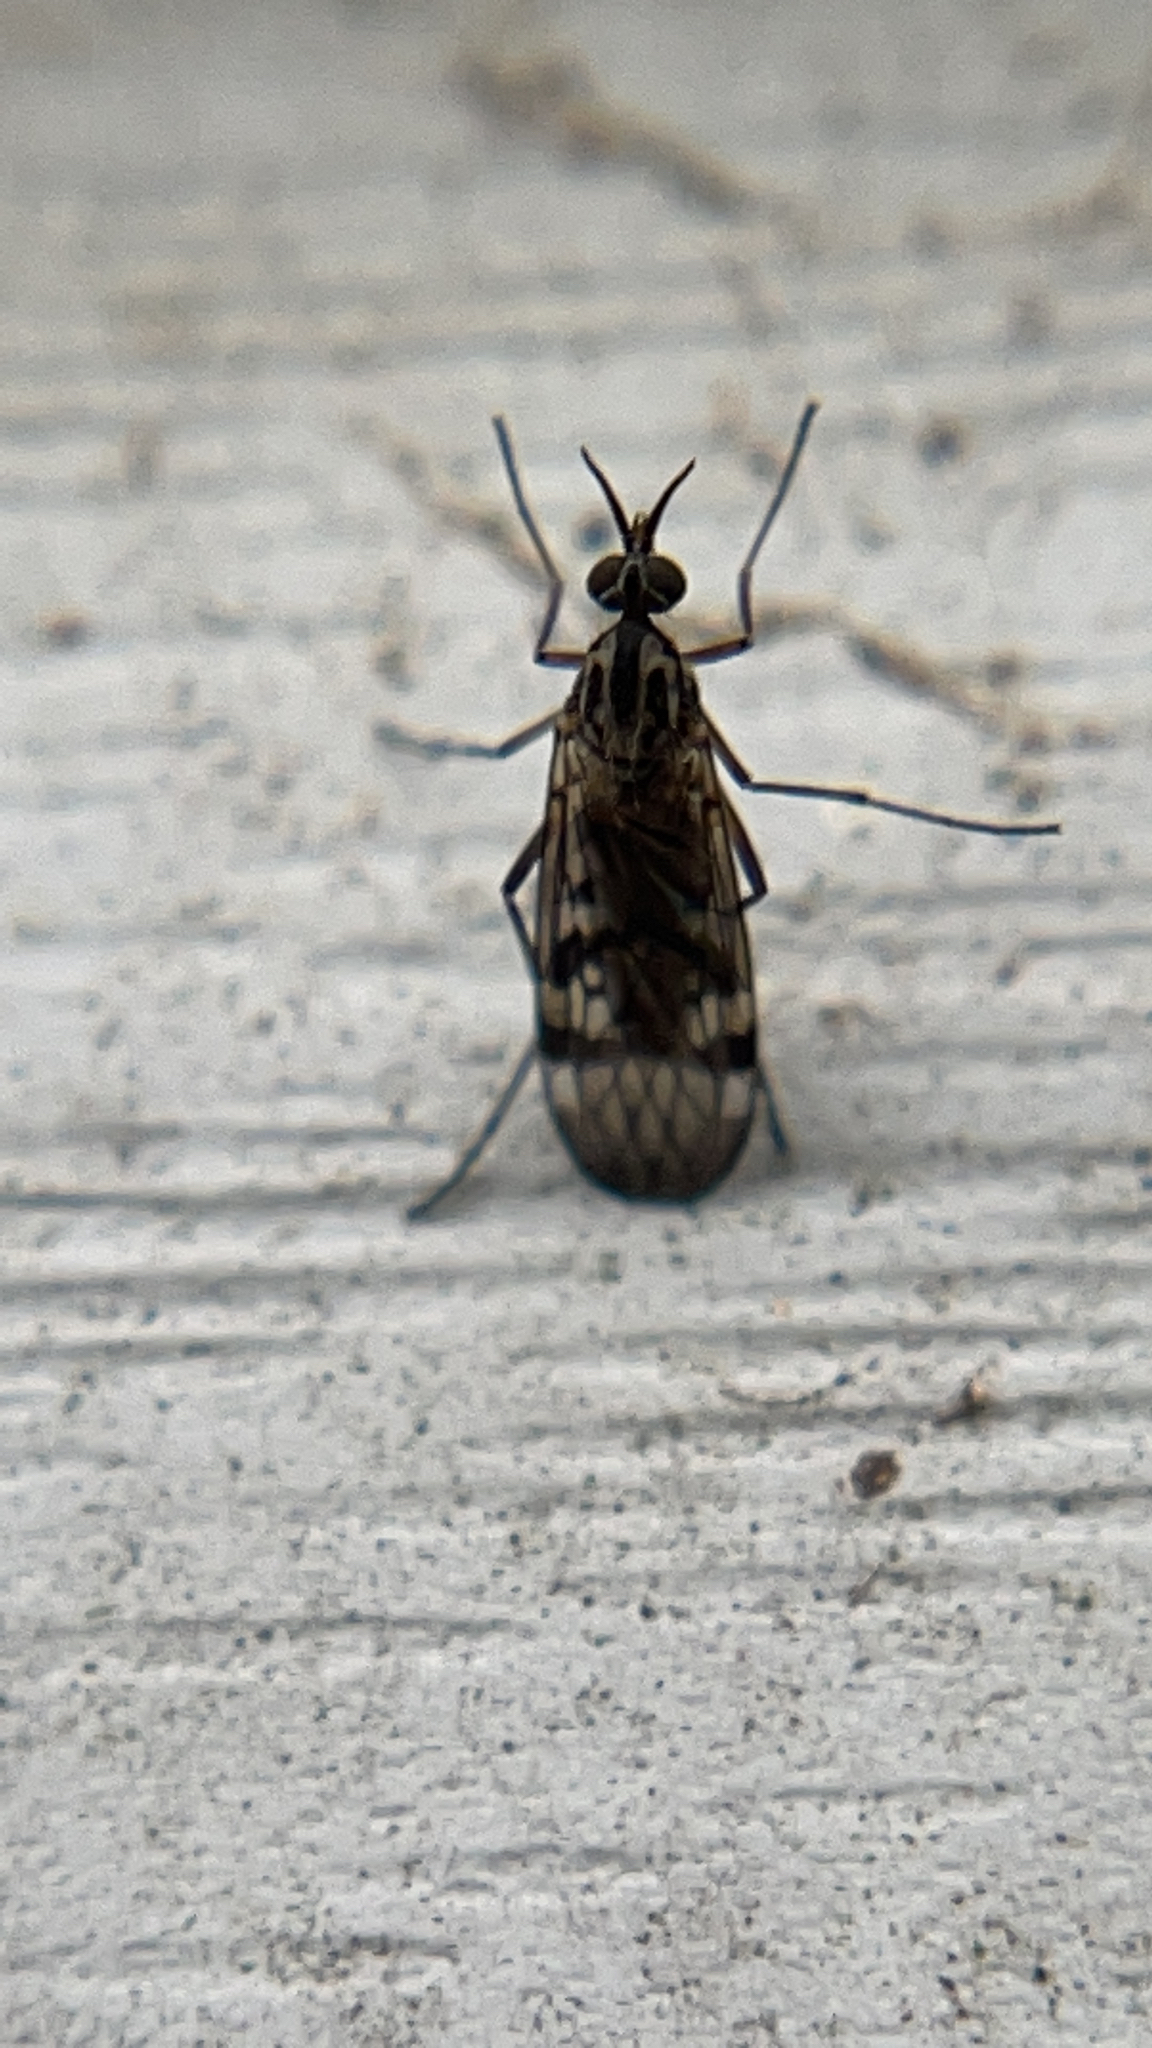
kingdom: Animalia
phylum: Arthropoda
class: Insecta
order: Diptera
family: Anisopodidae
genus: Sylvicola
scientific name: Sylvicola notialis
